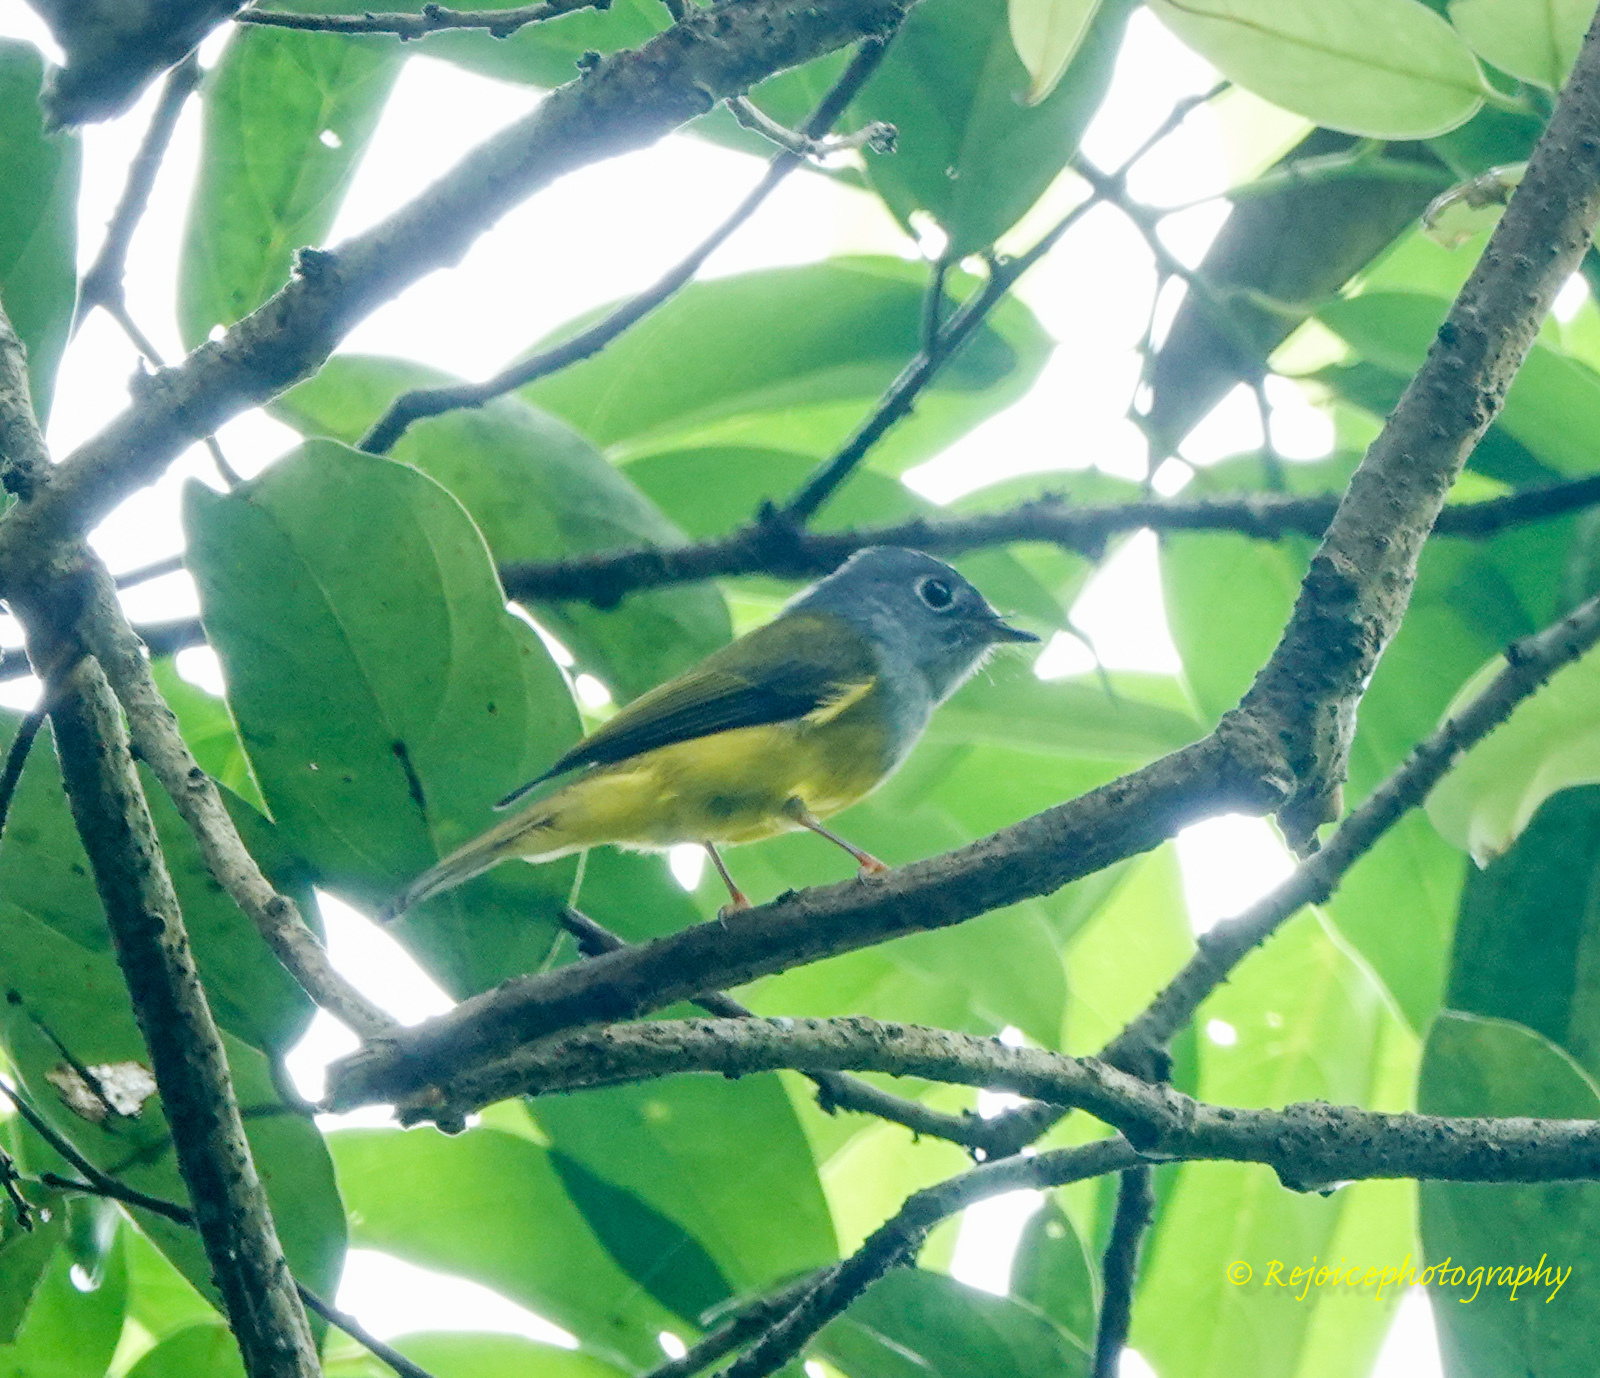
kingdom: Animalia
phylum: Chordata
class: Aves
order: Passeriformes
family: Stenostiridae
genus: Culicicapa
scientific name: Culicicapa ceylonensis
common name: Grey-headed canary-flycatcher
